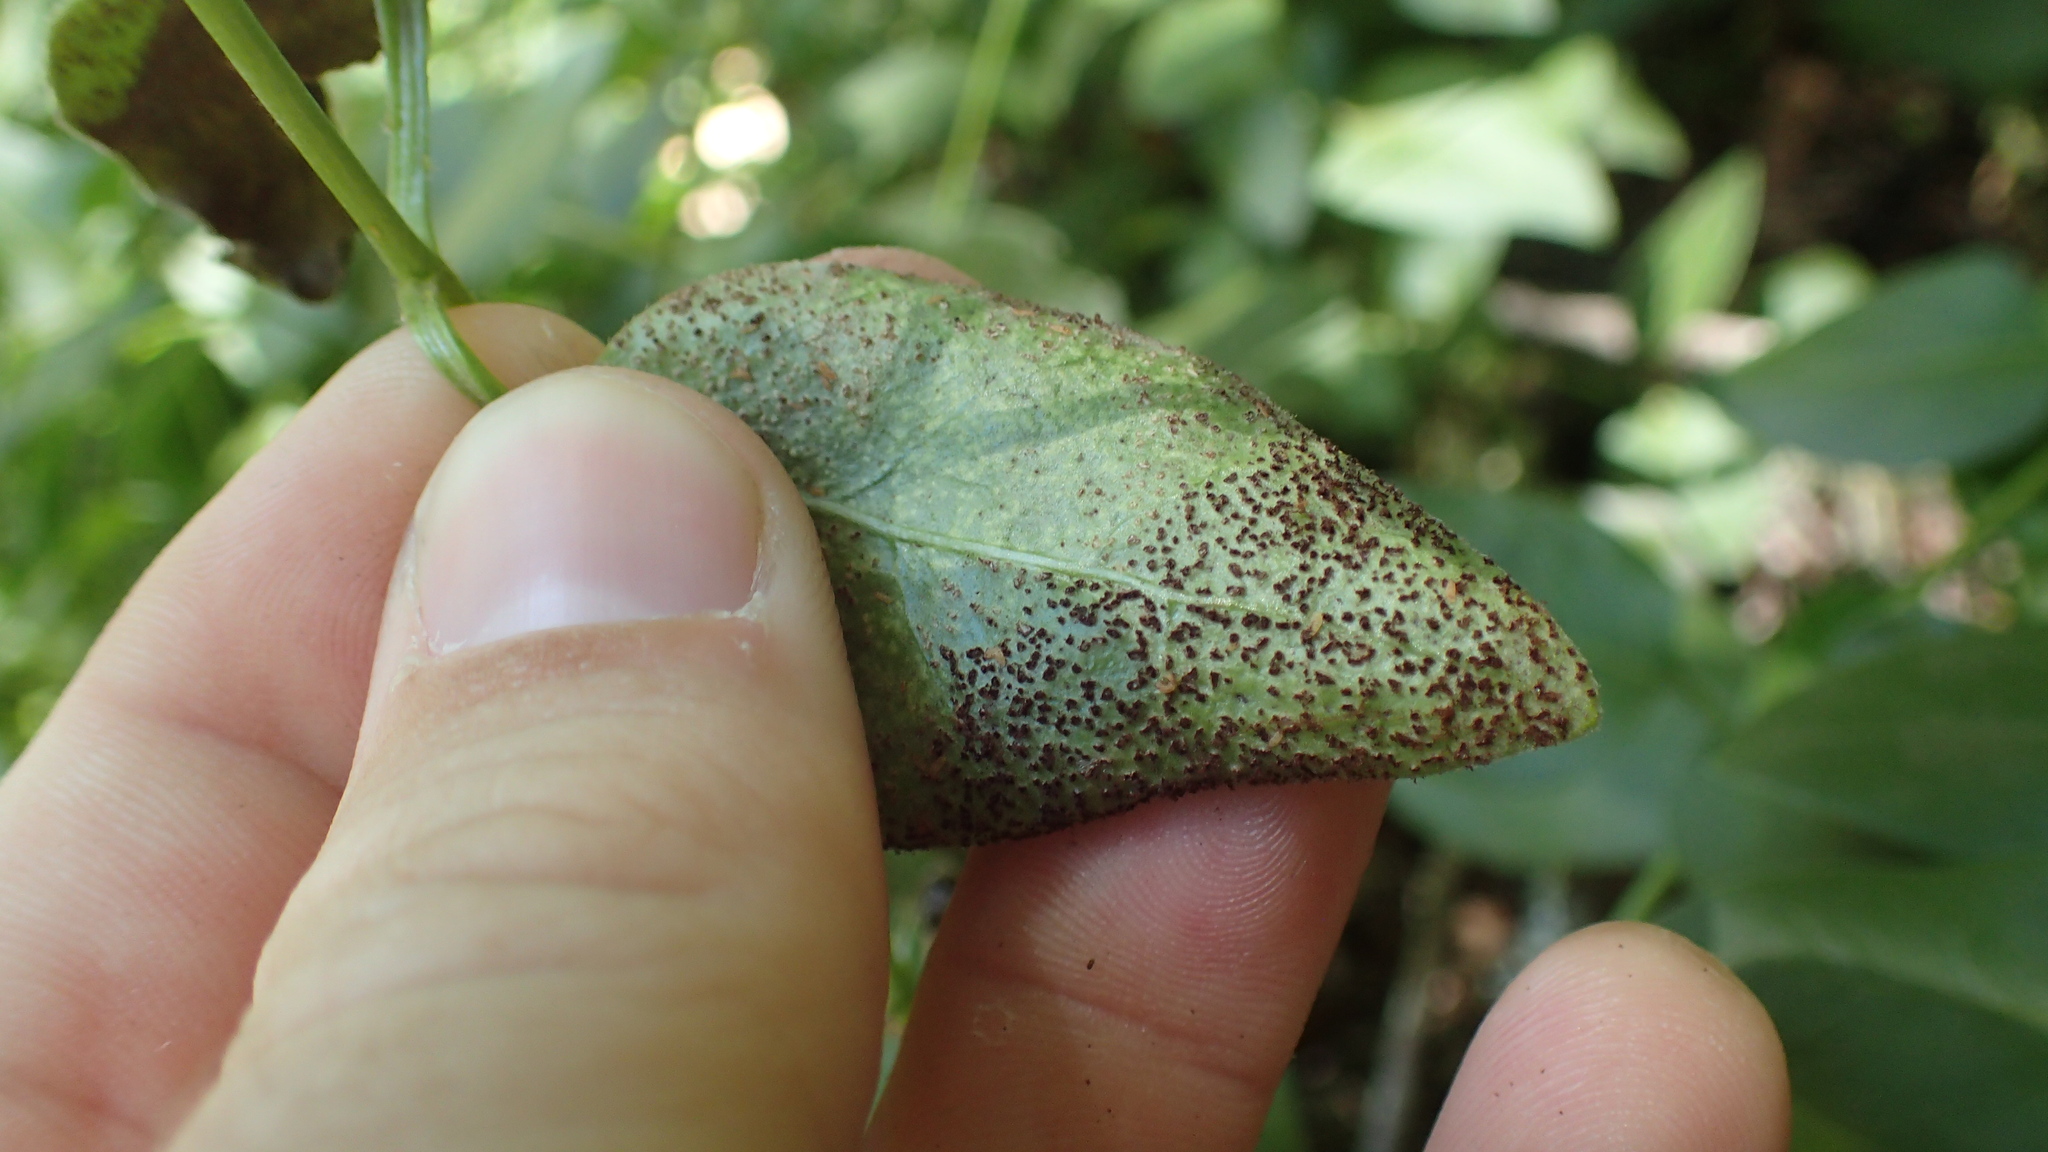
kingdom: Fungi
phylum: Basidiomycota
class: Pucciniomycetes
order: Pucciniales
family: Pucciniaceae
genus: Puccinia
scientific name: Puccinia vincae
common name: Periwinkle rust
